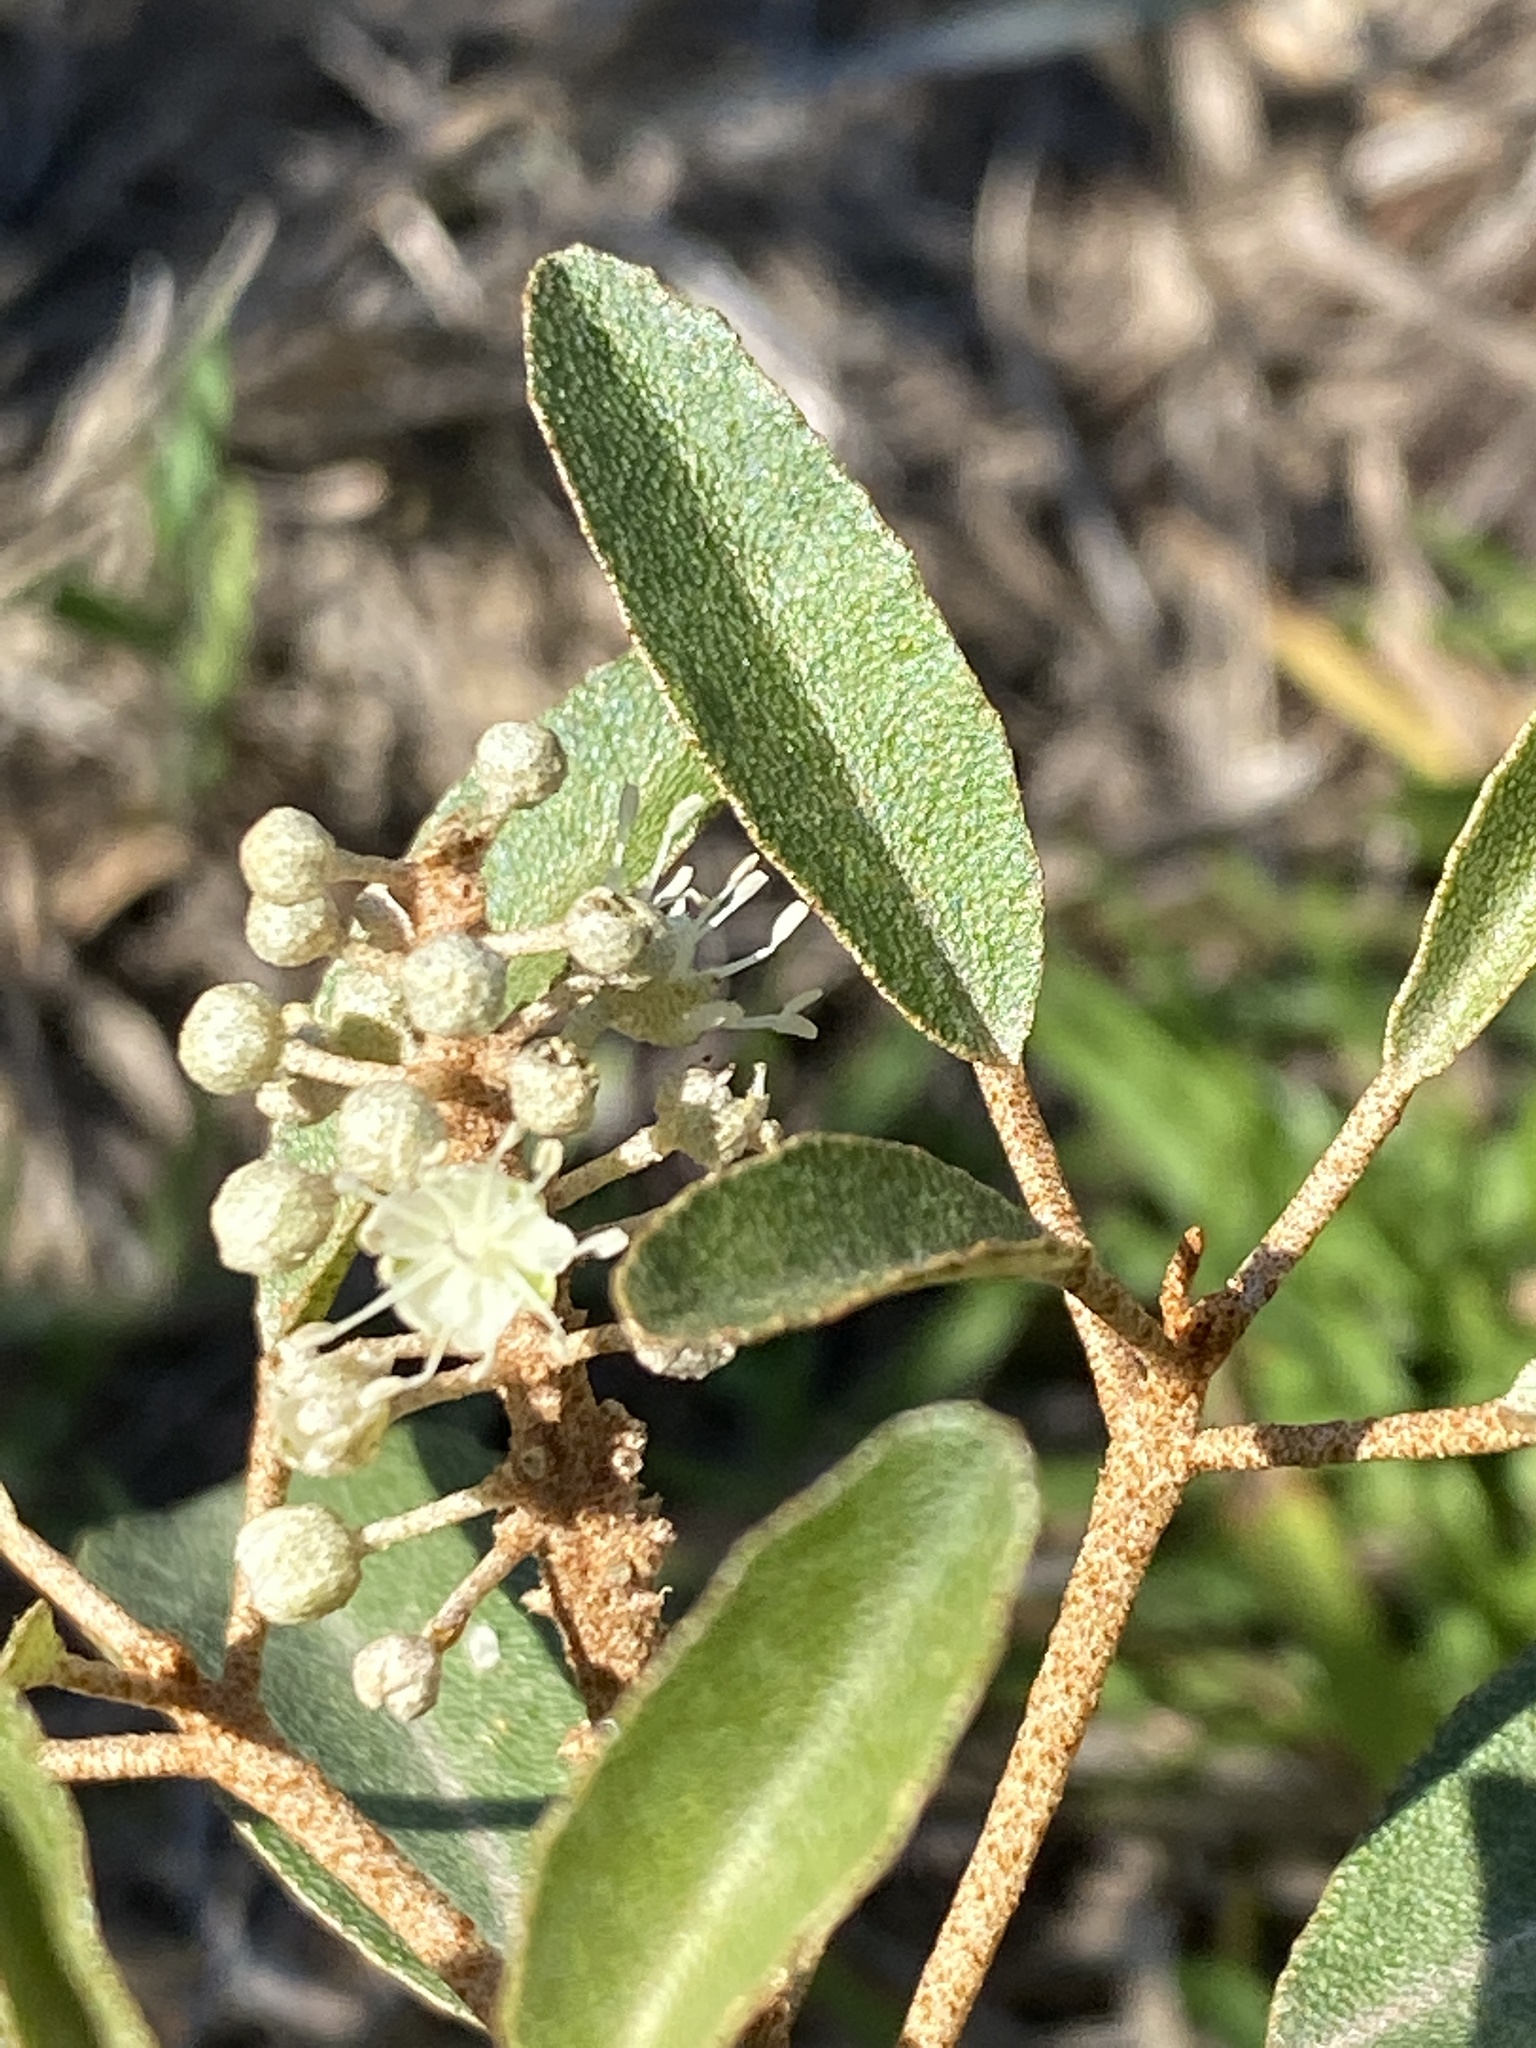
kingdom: Plantae
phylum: Tracheophyta
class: Magnoliopsida
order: Malpighiales
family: Euphorbiaceae
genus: Croton
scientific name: Croton argyranthemus
